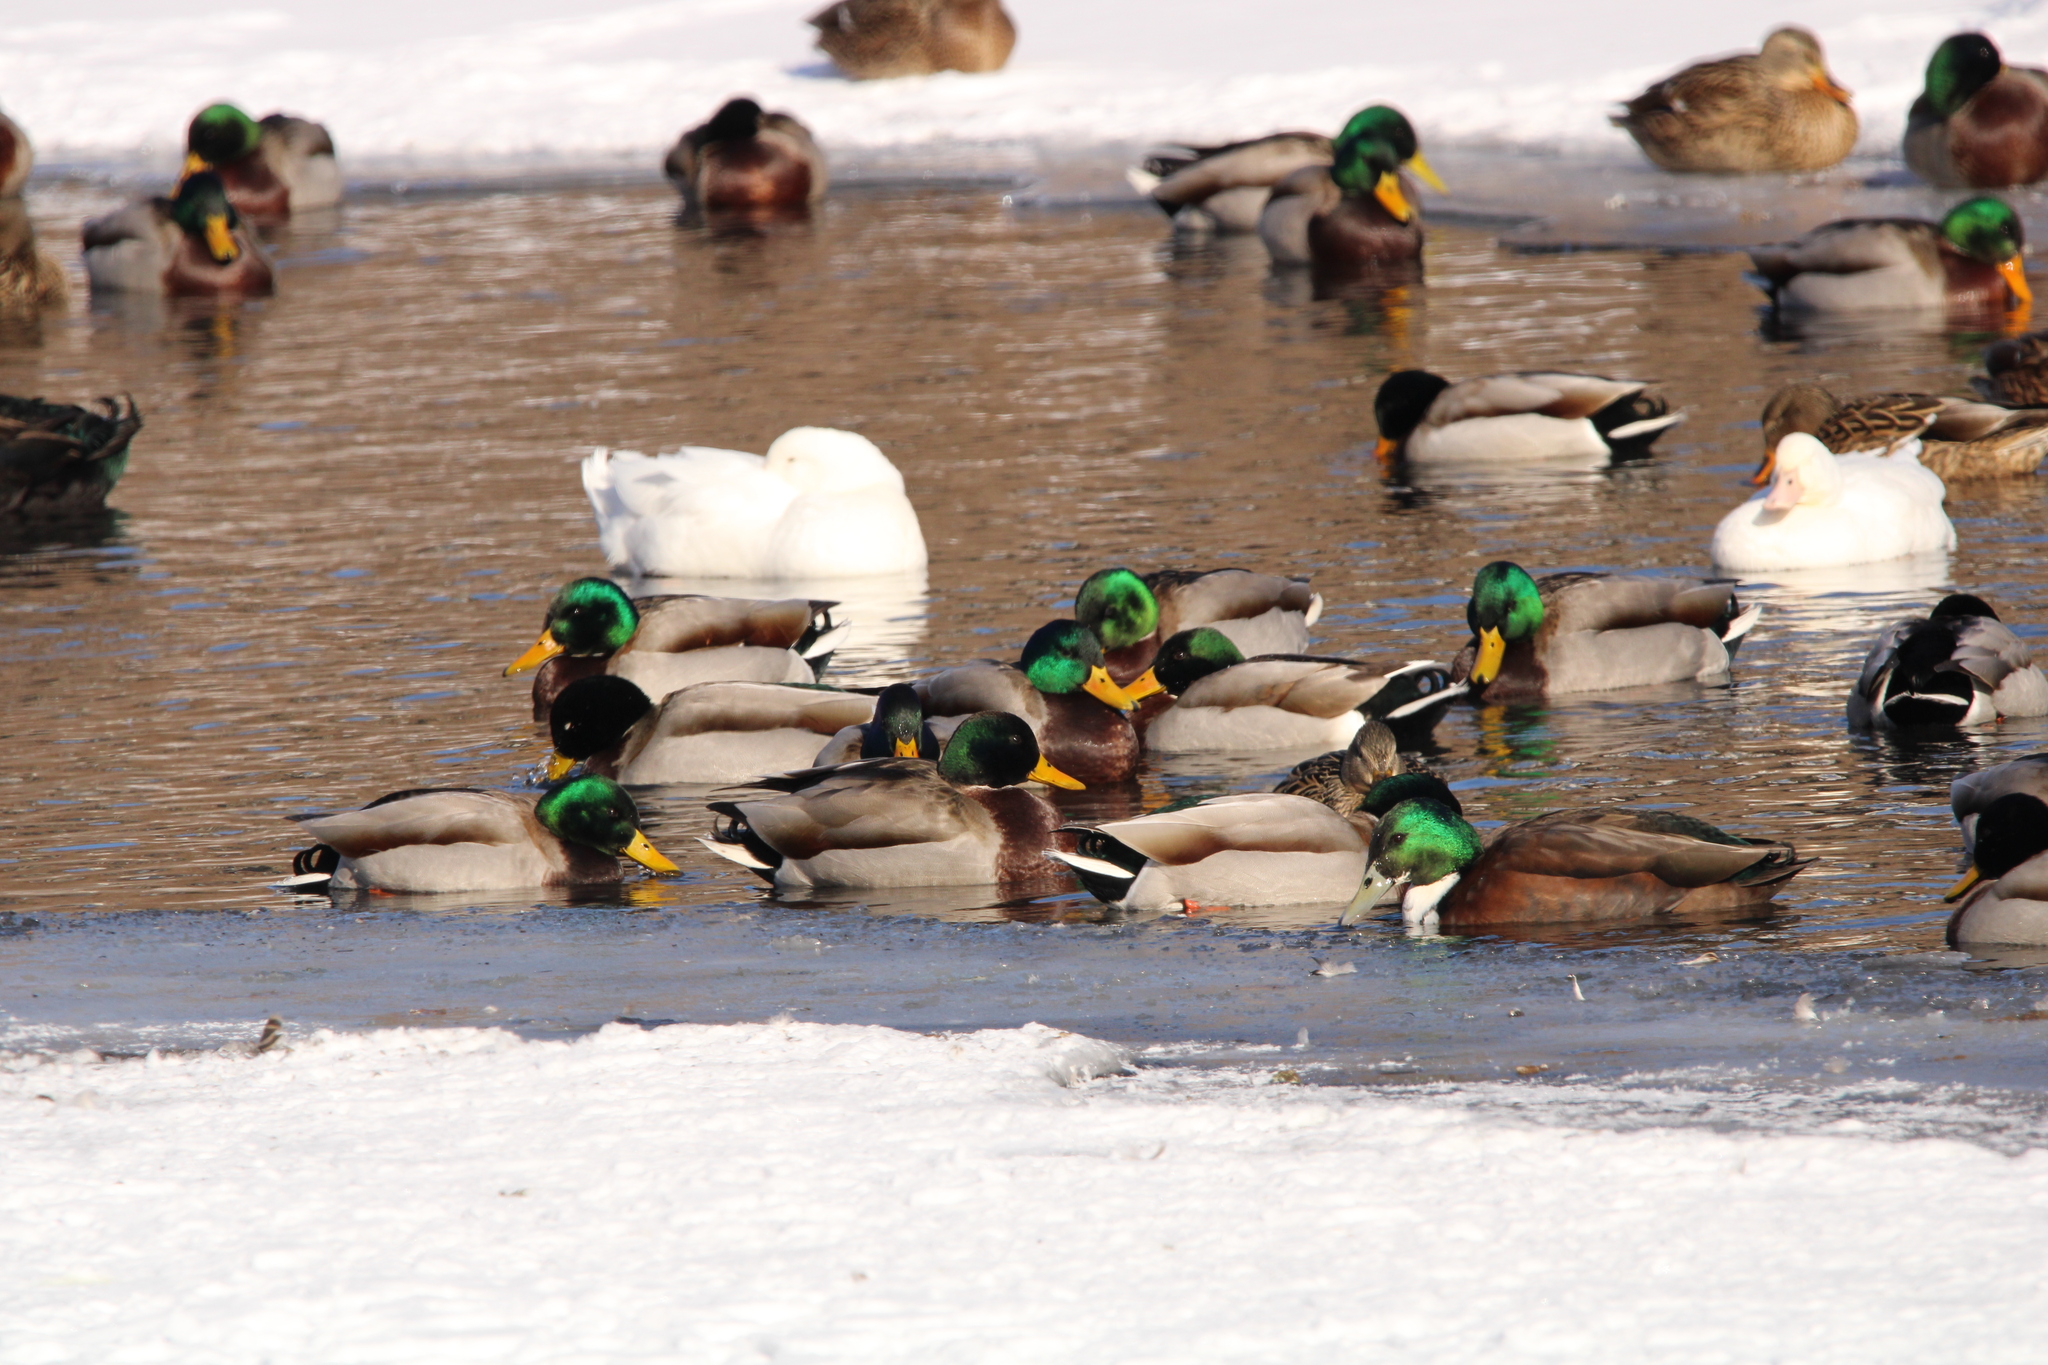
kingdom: Animalia
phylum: Chordata
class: Aves
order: Anseriformes
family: Anatidae
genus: Anas
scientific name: Anas platyrhynchos
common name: Mallard
